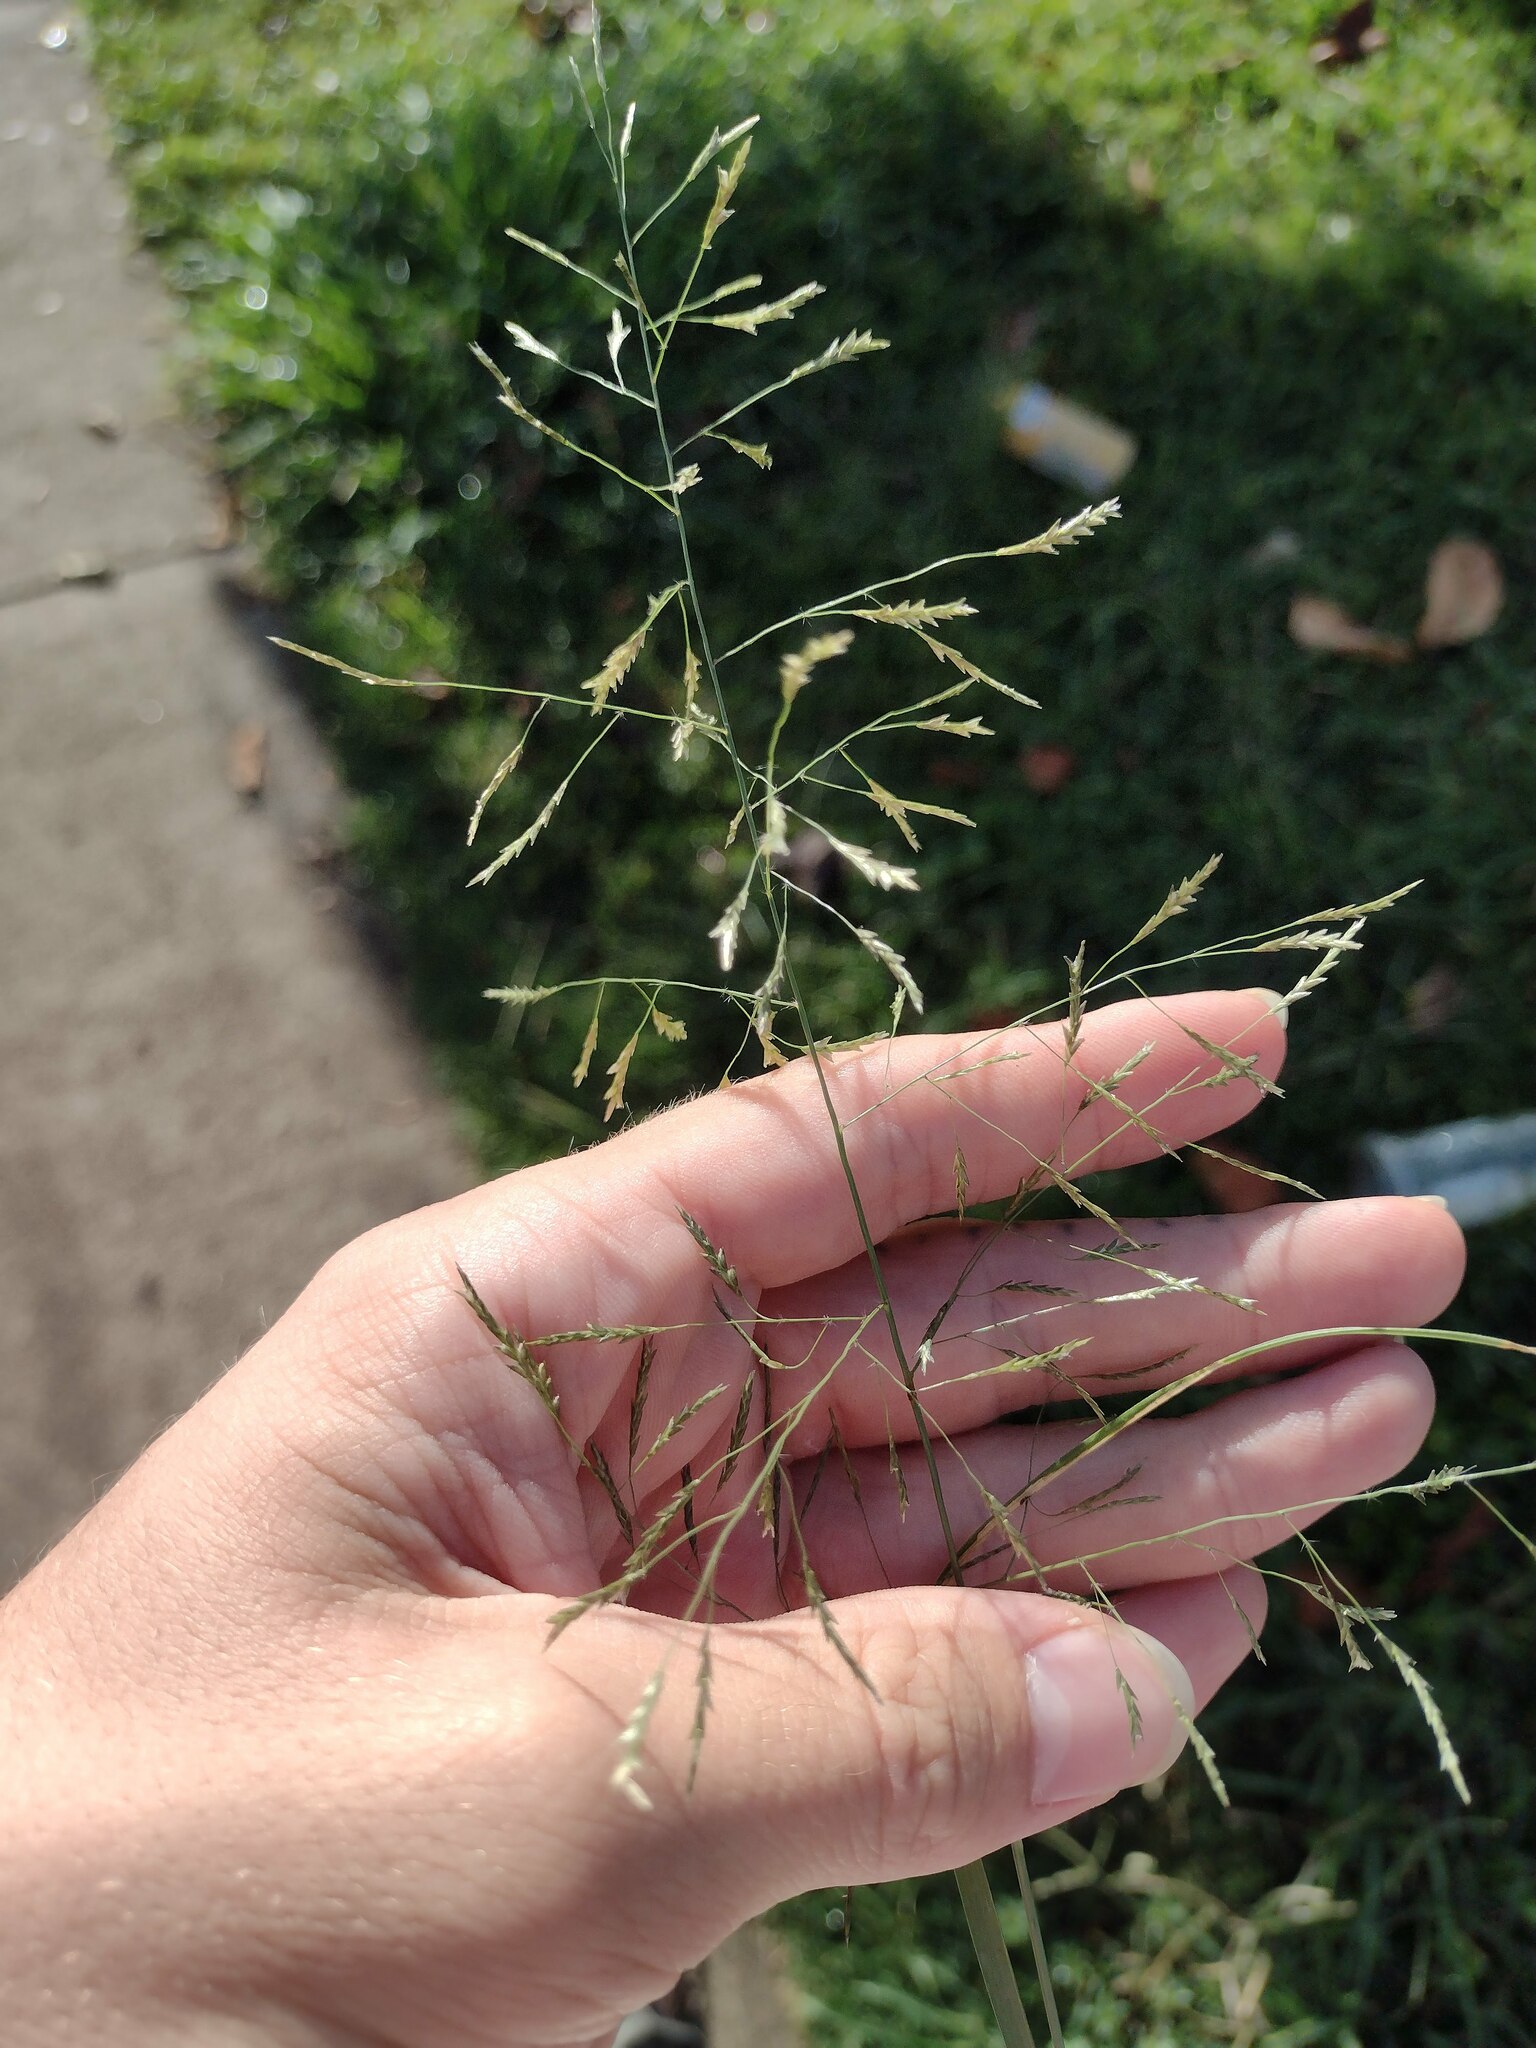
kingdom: Plantae
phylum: Tracheophyta
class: Liliopsida
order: Poales
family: Poaceae
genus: Eragrostis
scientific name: Eragrostis tenuifolia
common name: Elastic grass
